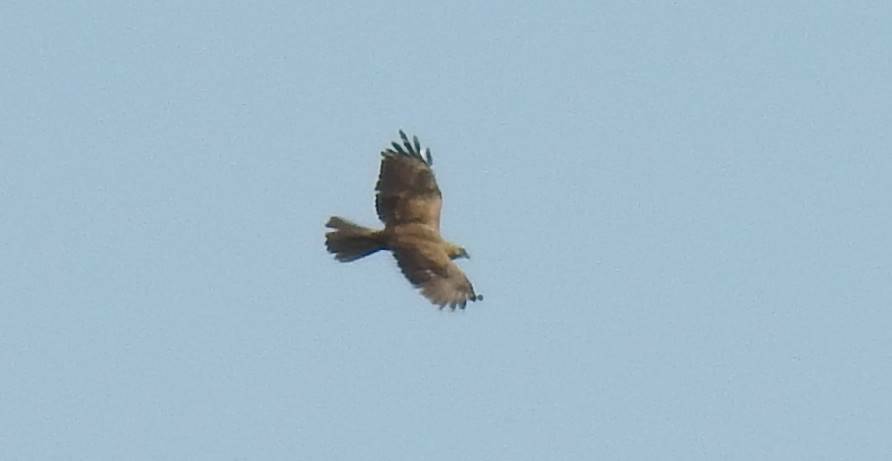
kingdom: Animalia
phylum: Chordata
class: Aves
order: Accipitriformes
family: Accipitridae
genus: Circus
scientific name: Circus aeruginosus
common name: Western marsh harrier
